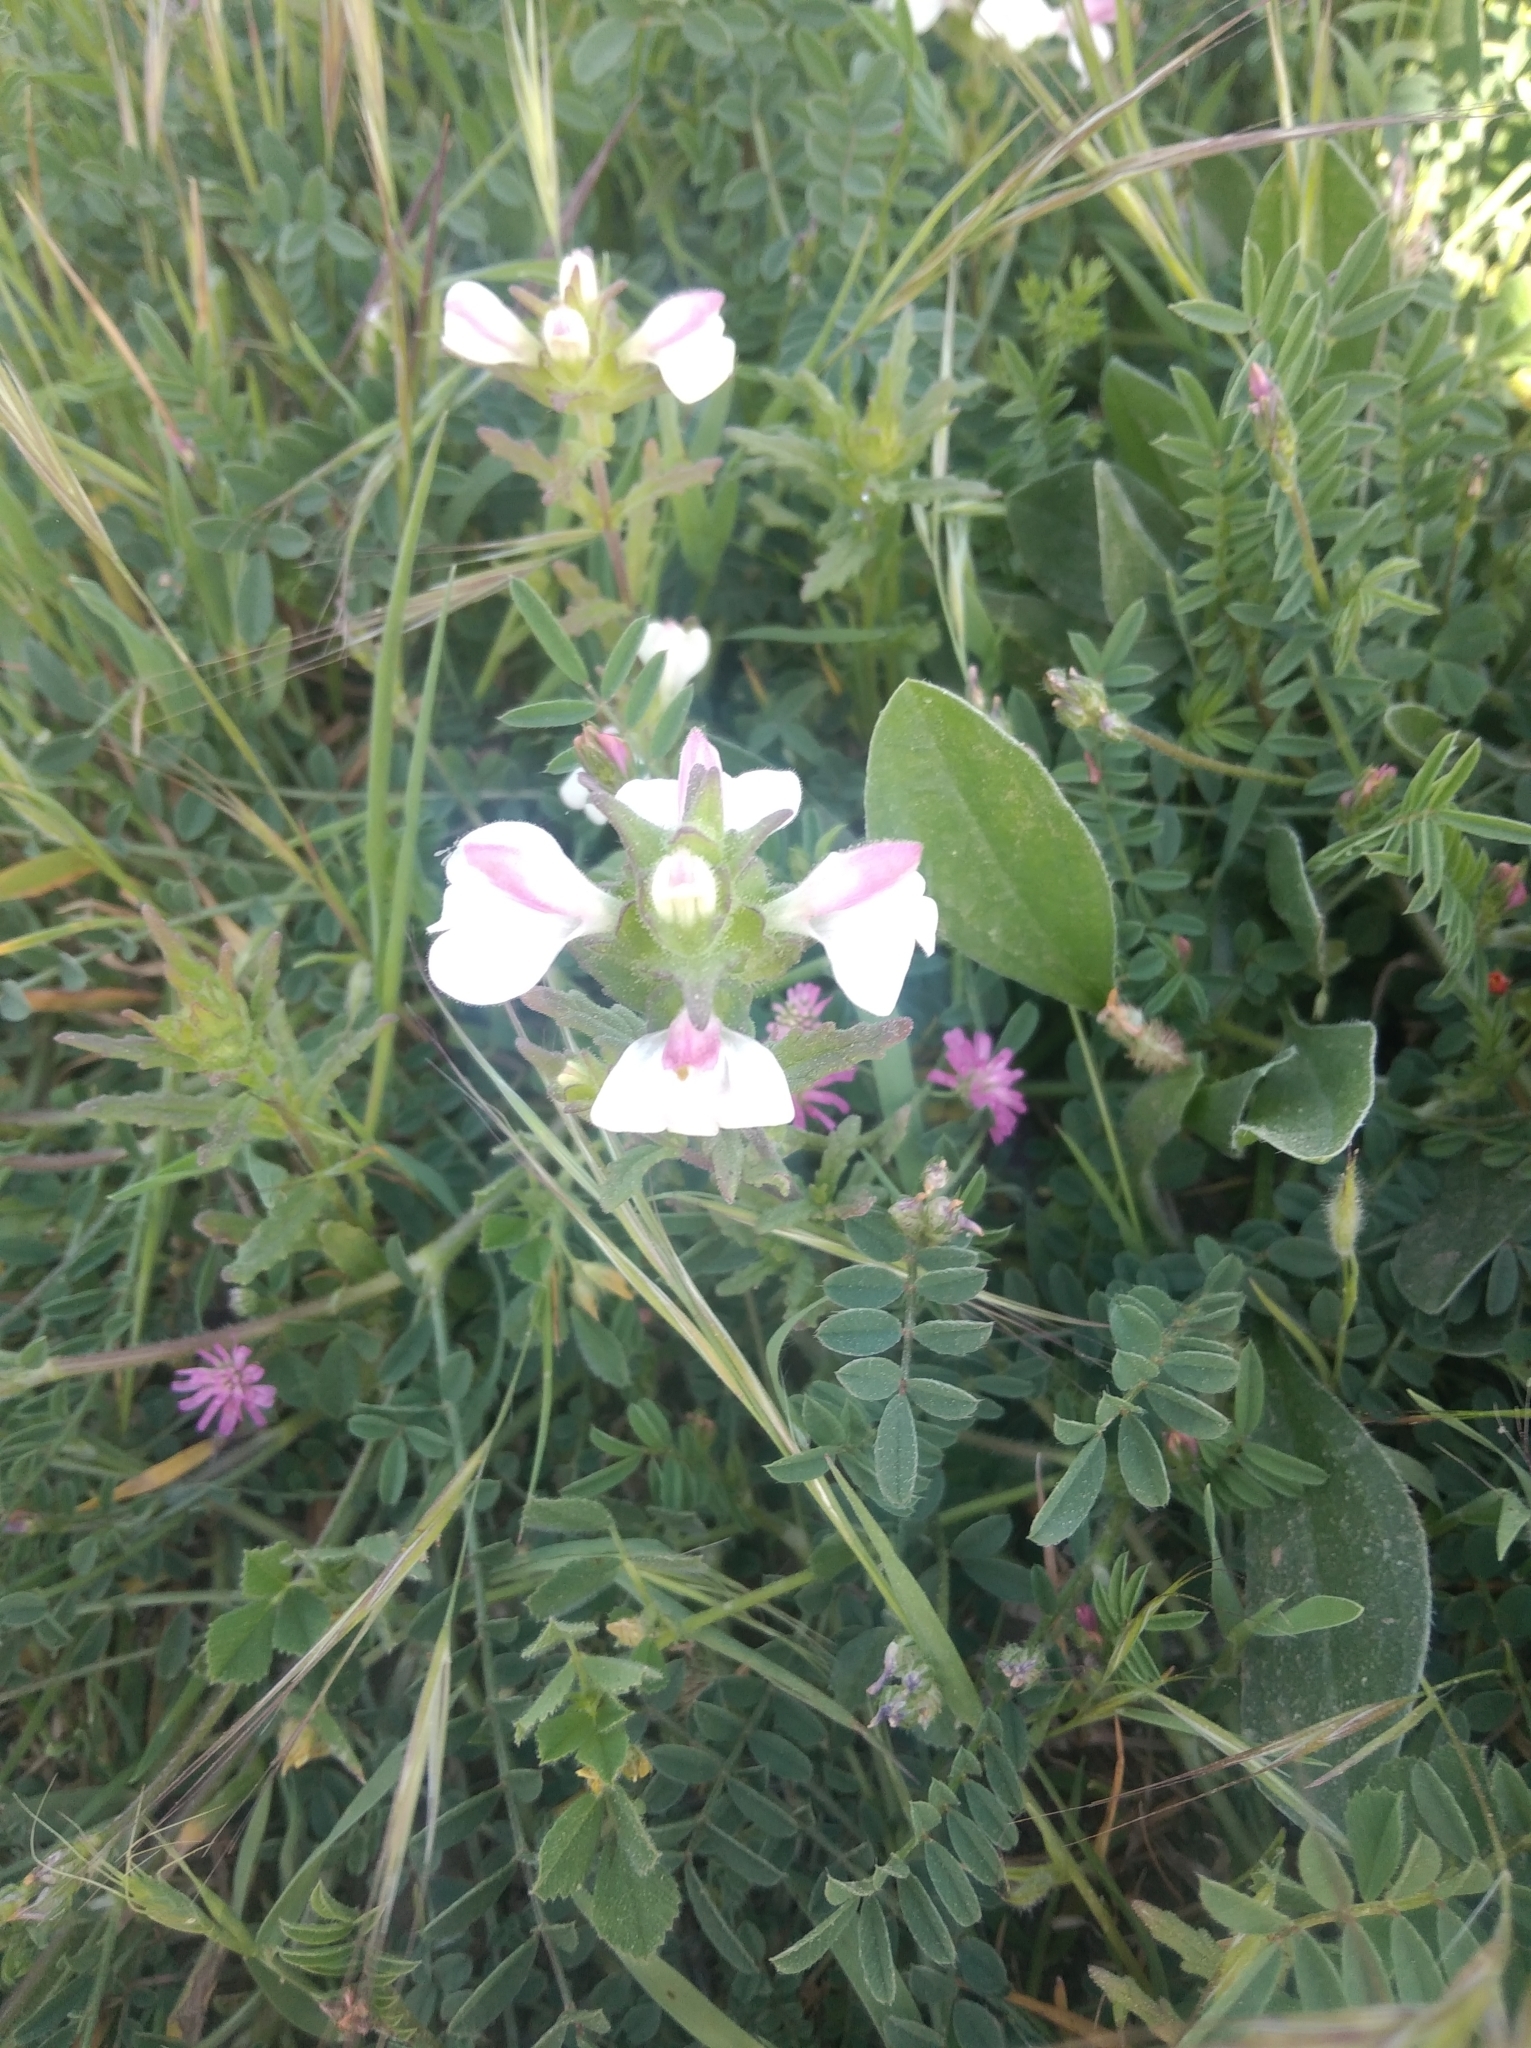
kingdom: Plantae
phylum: Tracheophyta
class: Magnoliopsida
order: Lamiales
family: Orobanchaceae
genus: Bellardia
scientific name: Bellardia trixago
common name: Mediterranean lineseed
